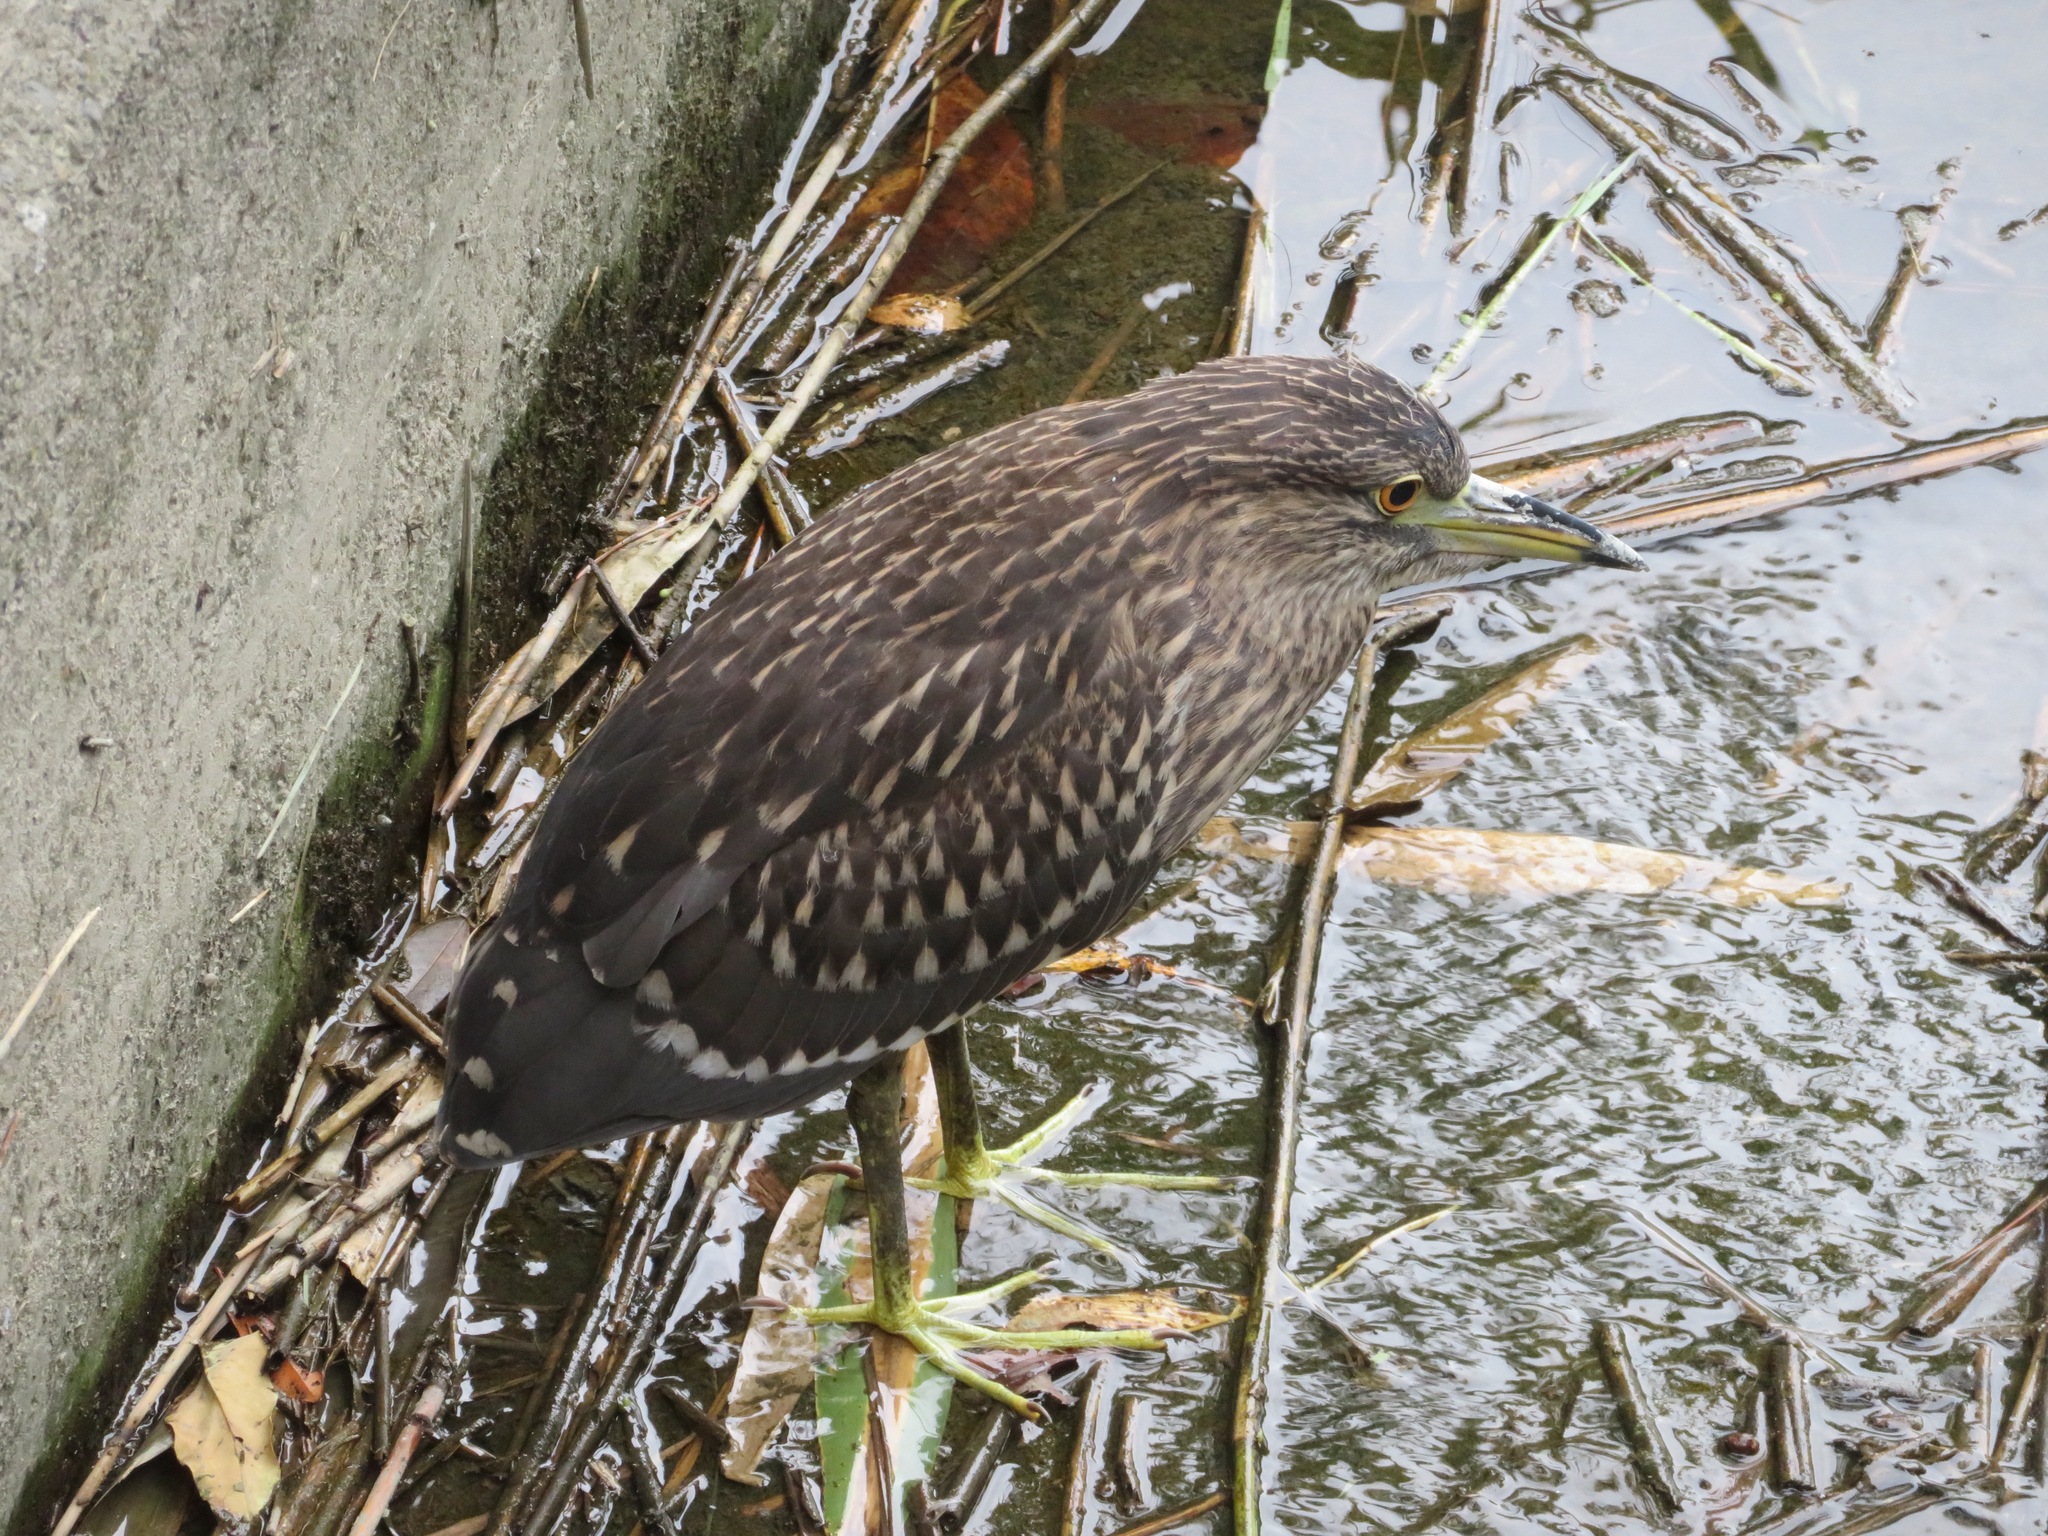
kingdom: Animalia
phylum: Chordata
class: Aves
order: Pelecaniformes
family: Ardeidae
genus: Nycticorax
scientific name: Nycticorax nycticorax
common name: Black-crowned night heron
